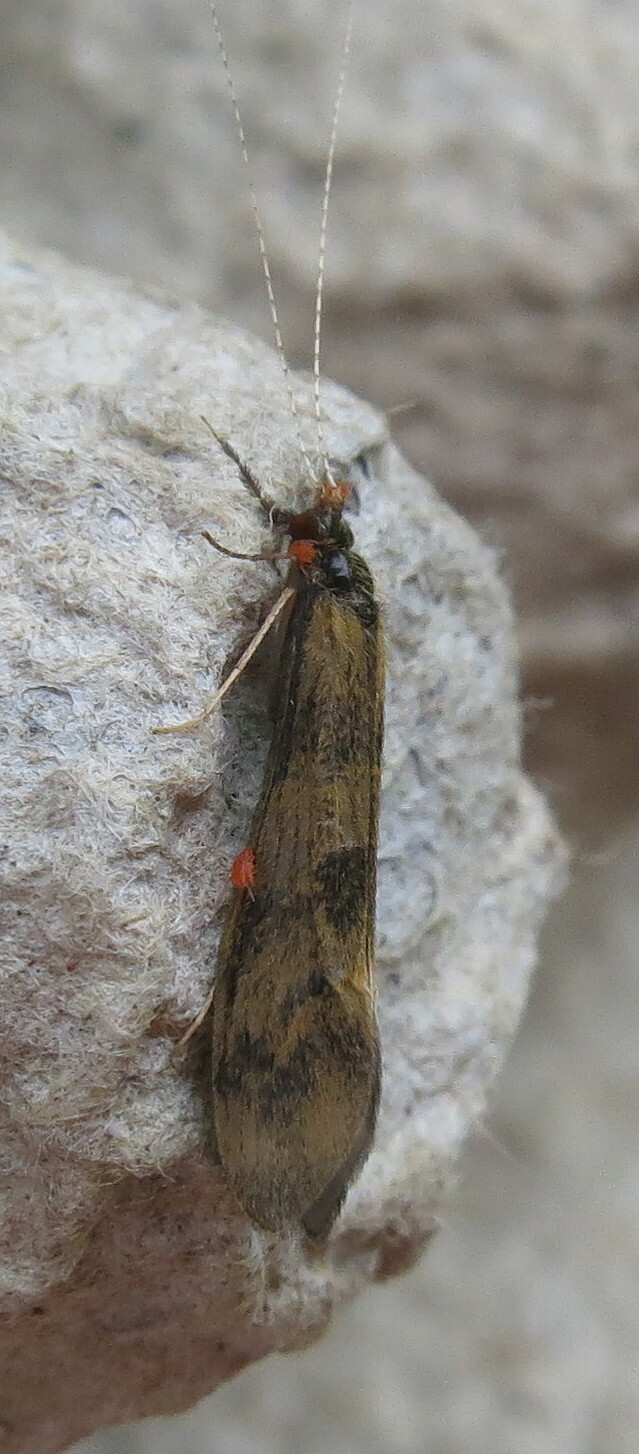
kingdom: Animalia
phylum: Arthropoda
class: Insecta
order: Trichoptera
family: Leptoceridae
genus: Mystacides
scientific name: Mystacides longicornis
